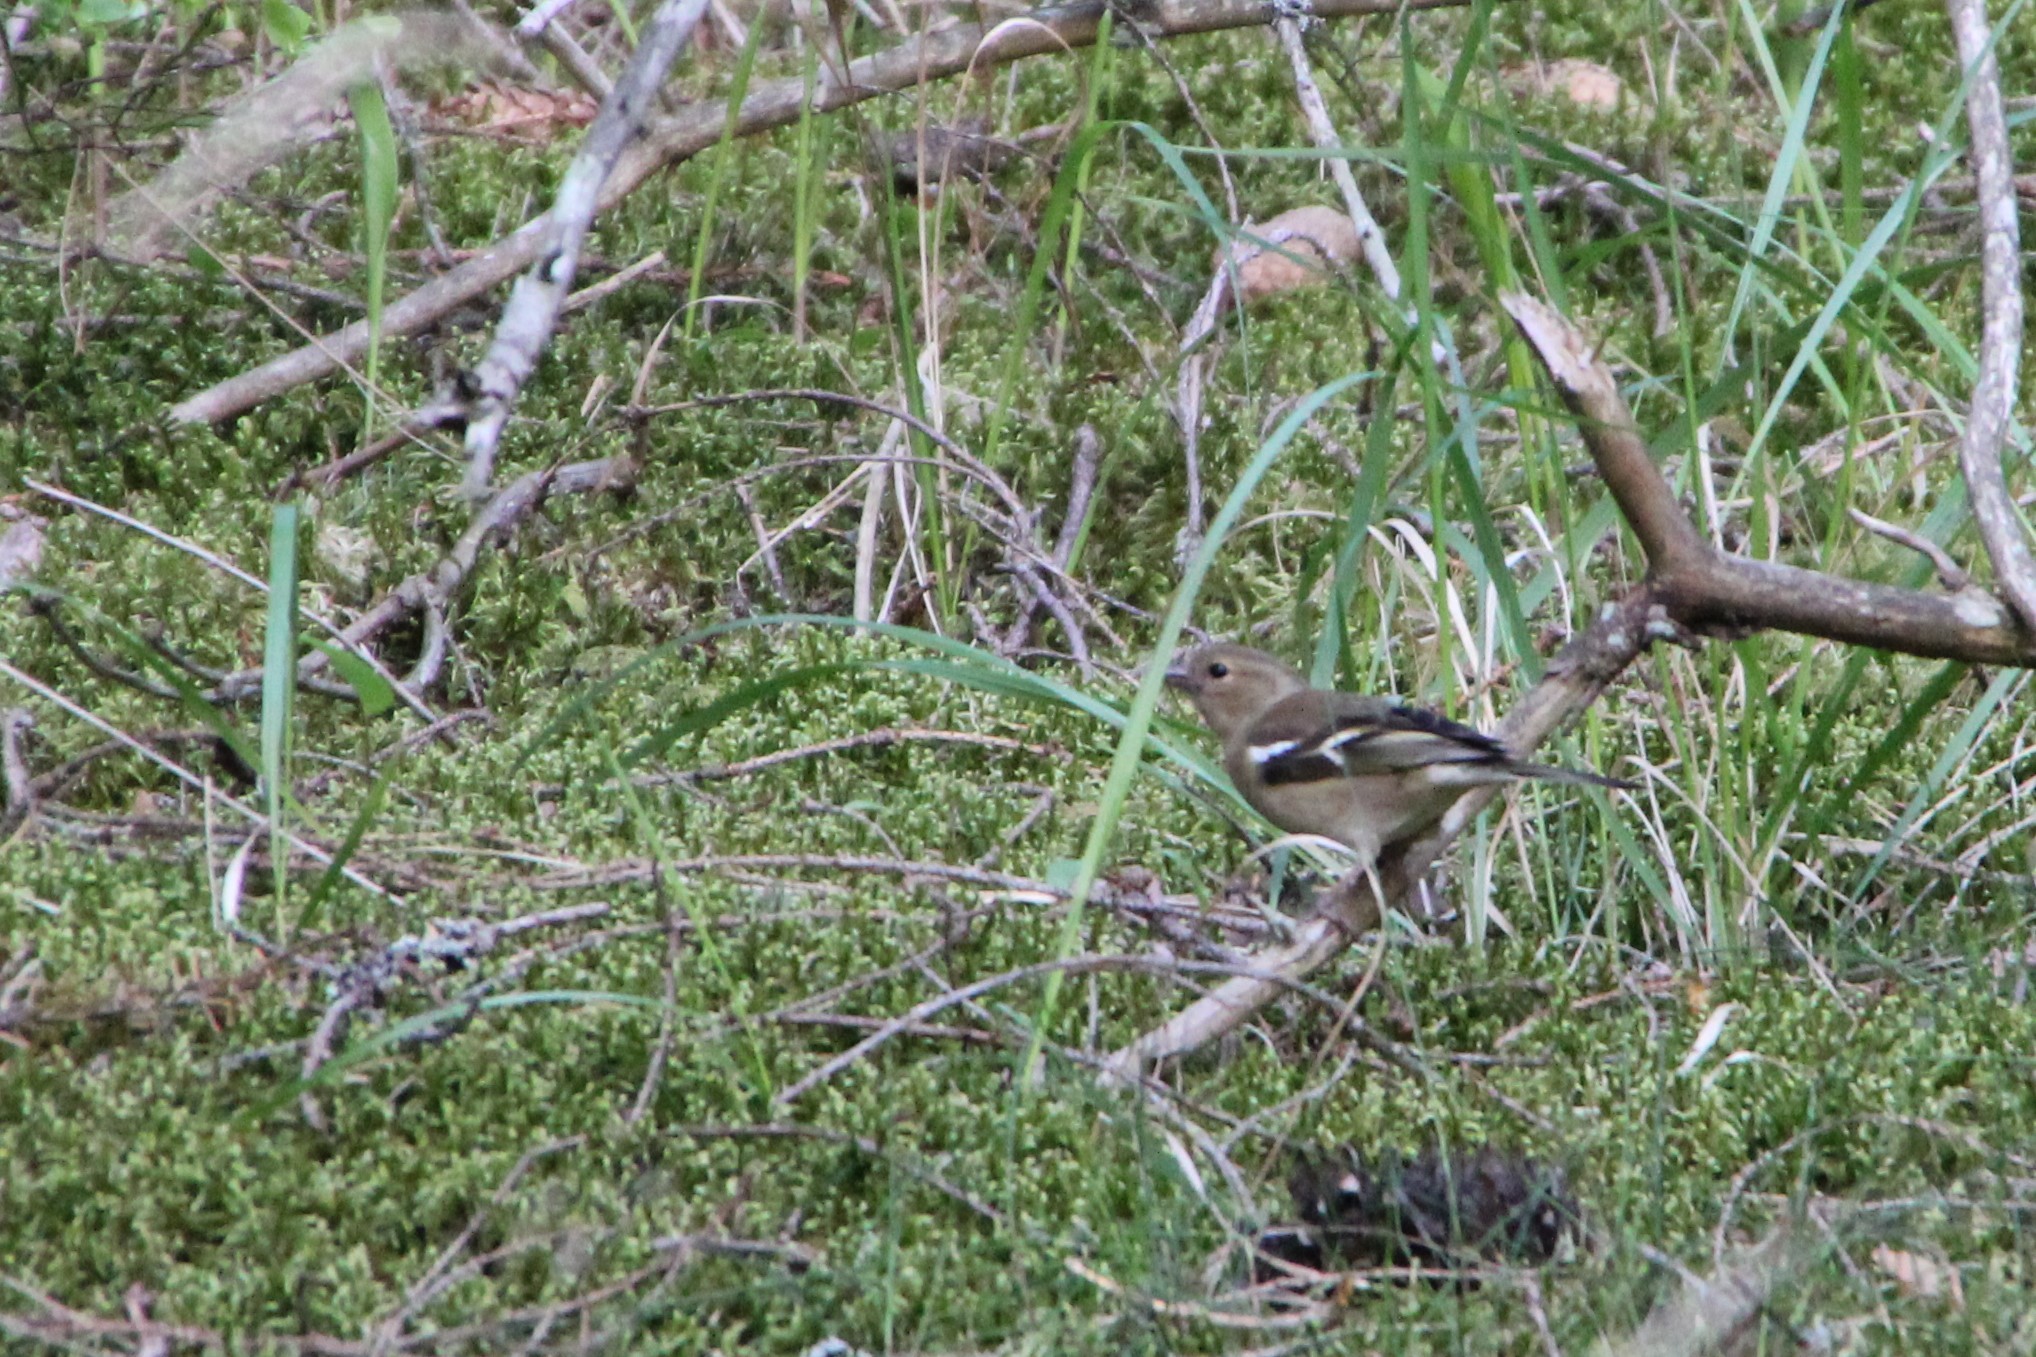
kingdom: Animalia
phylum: Chordata
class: Aves
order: Passeriformes
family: Fringillidae
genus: Fringilla
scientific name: Fringilla coelebs
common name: Common chaffinch
